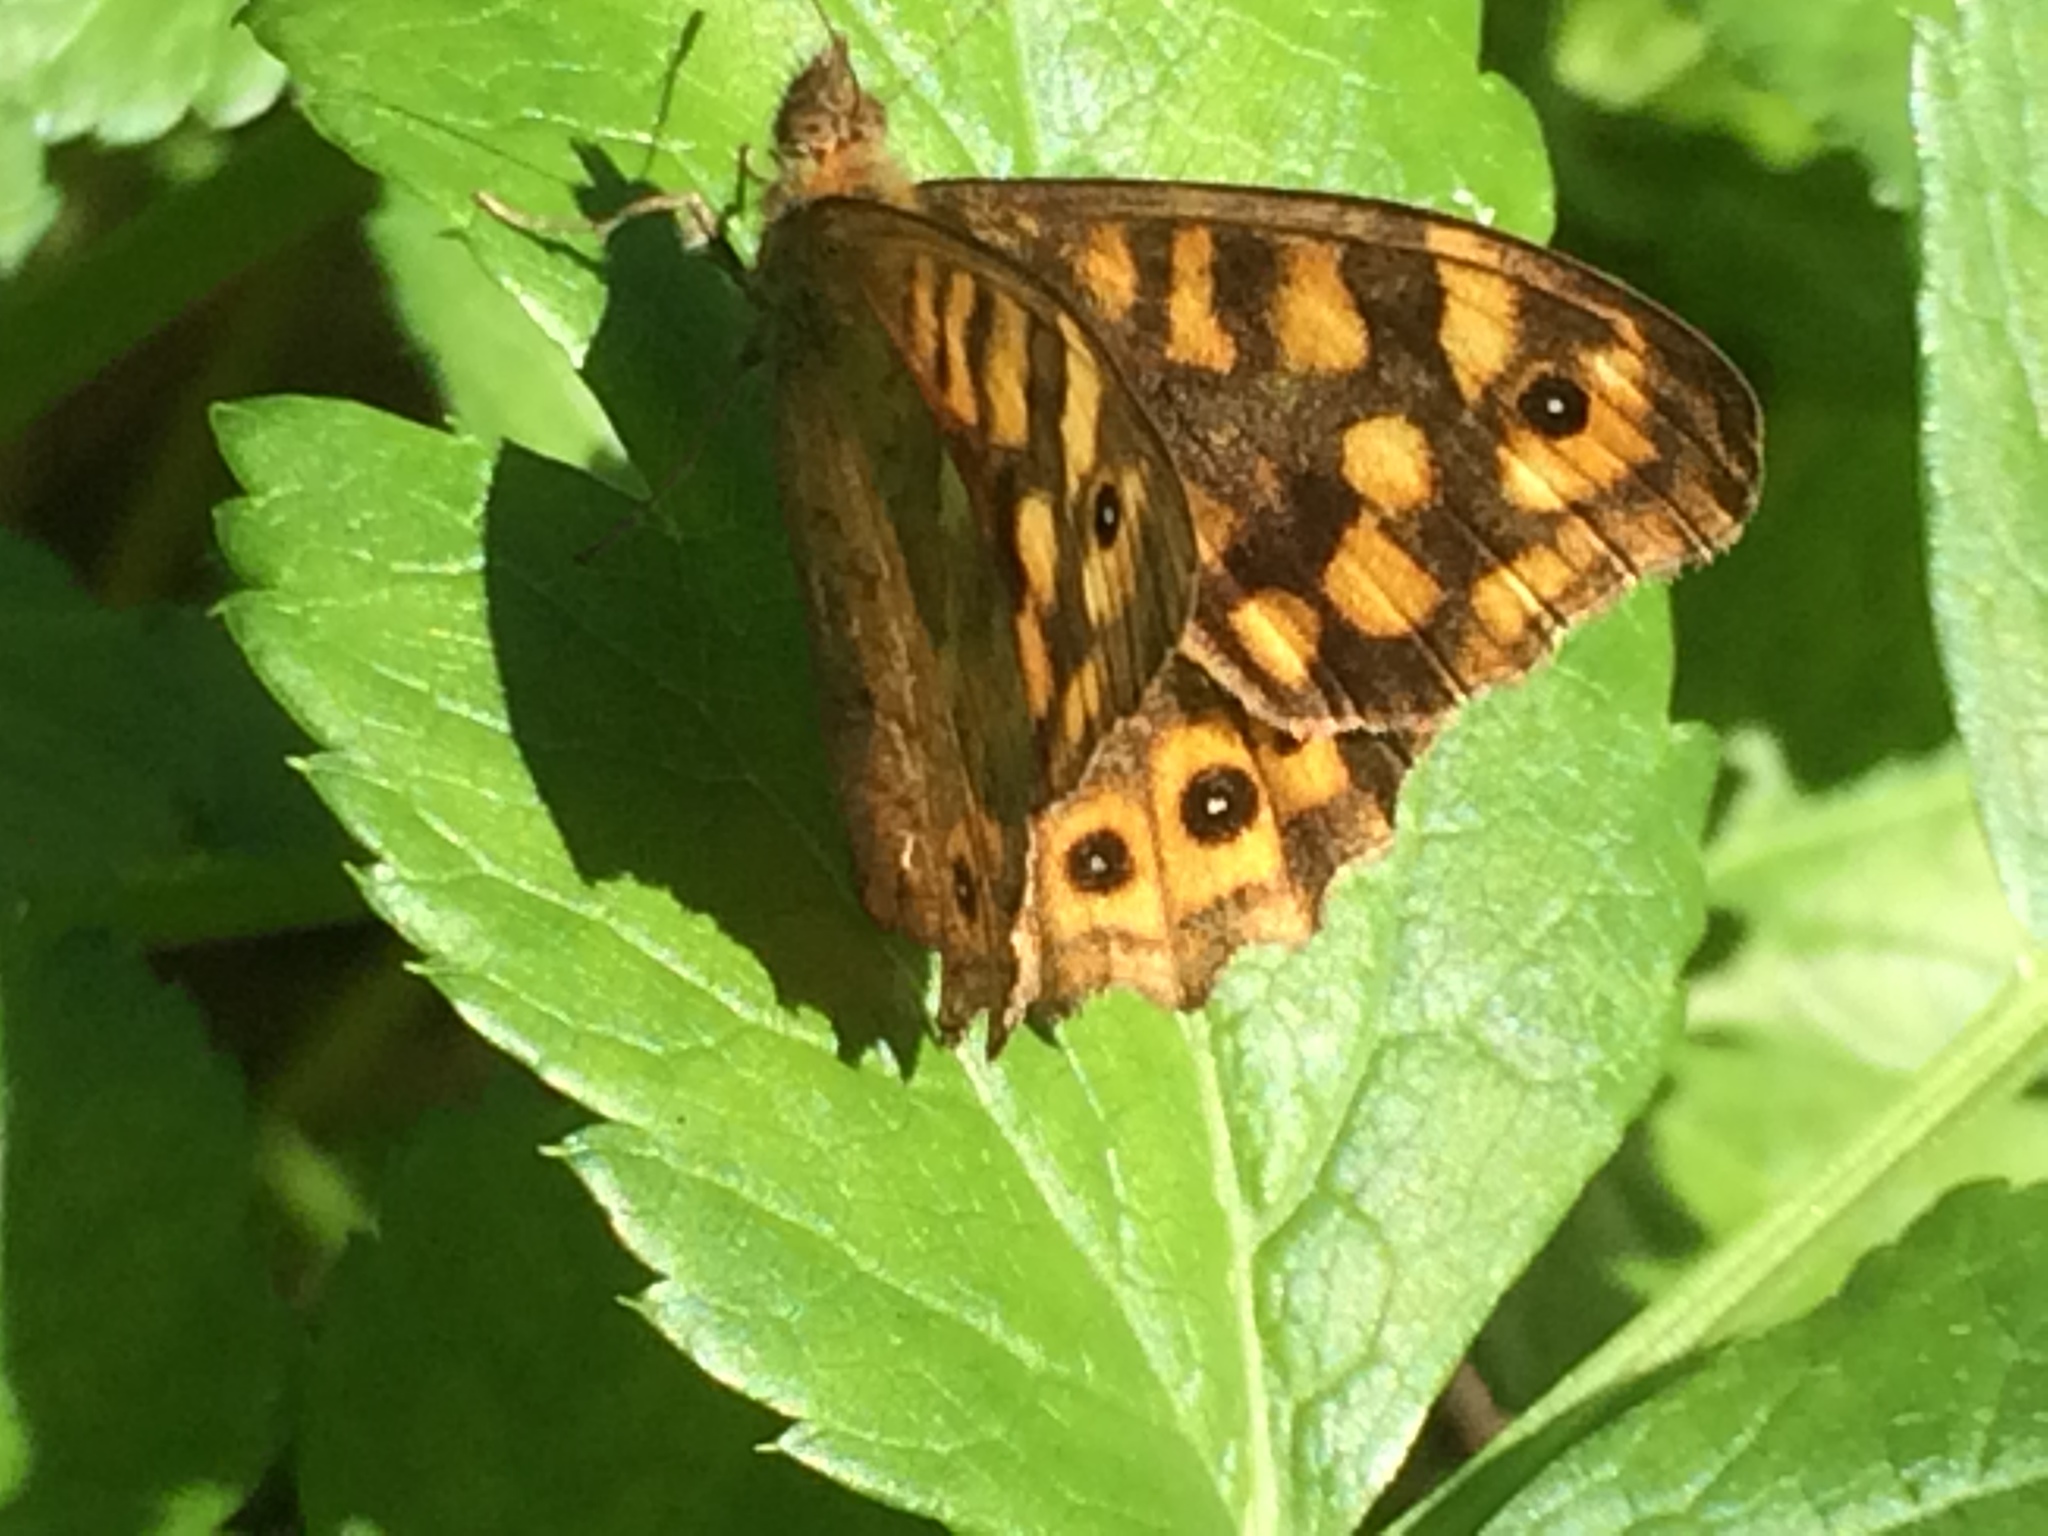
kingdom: Animalia
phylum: Arthropoda
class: Insecta
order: Lepidoptera
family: Nymphalidae
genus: Pararge
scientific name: Pararge aegeria
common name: Speckled wood
